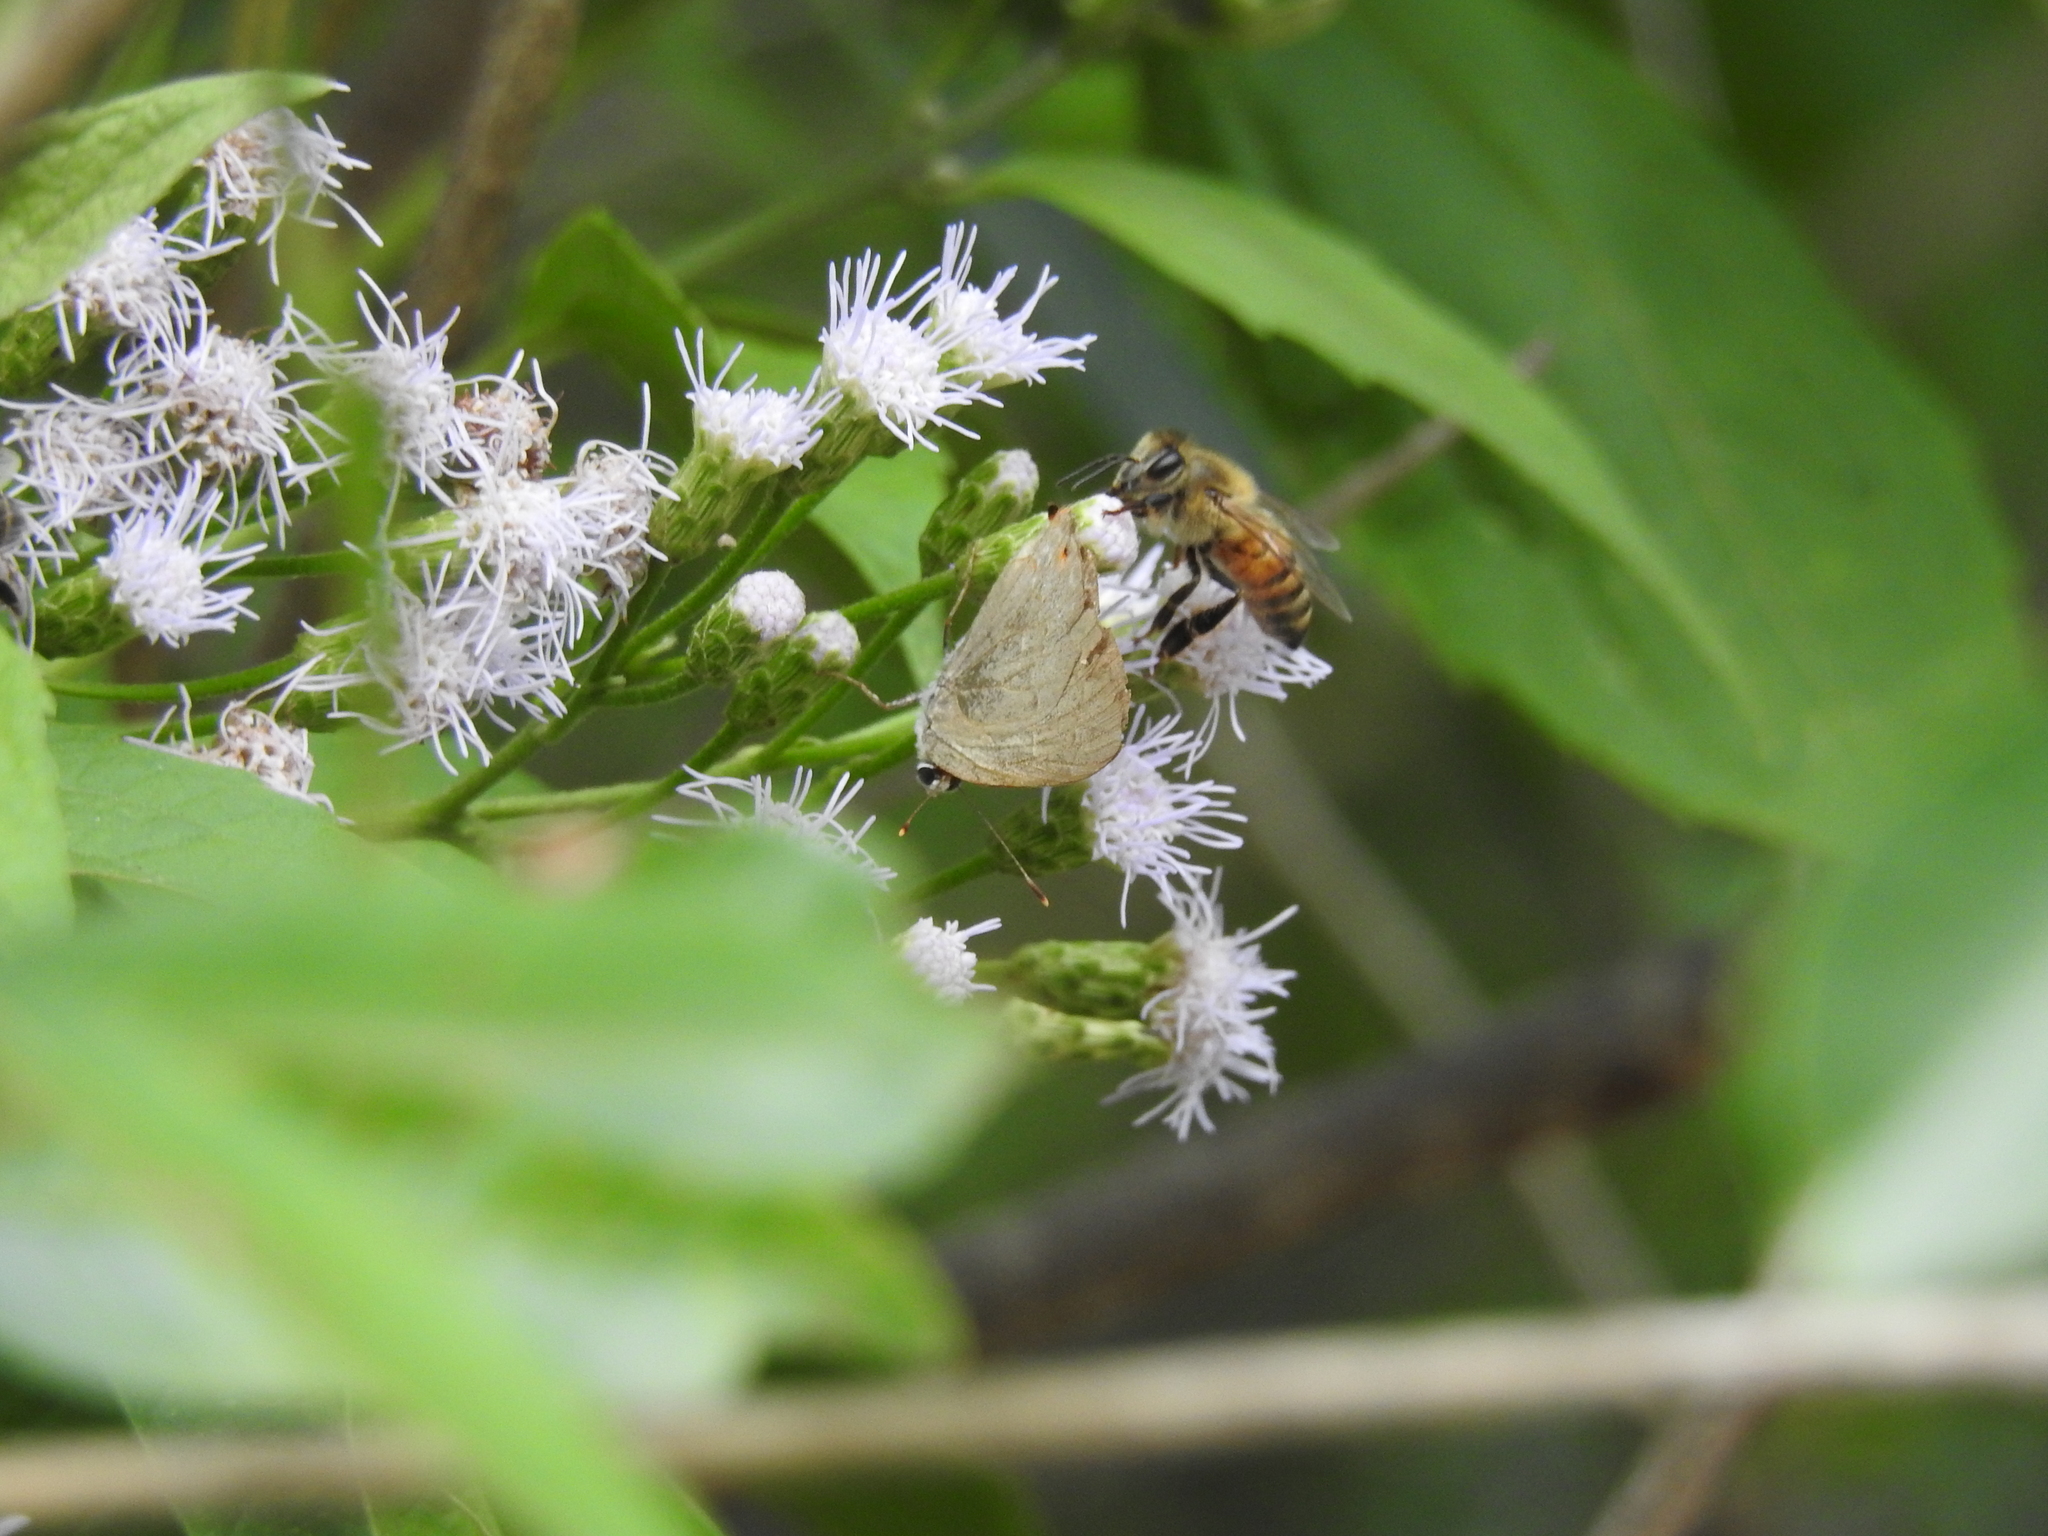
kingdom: Animalia
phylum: Arthropoda
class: Insecta
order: Hymenoptera
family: Apidae
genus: Apis
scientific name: Apis mellifera
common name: Honey bee
